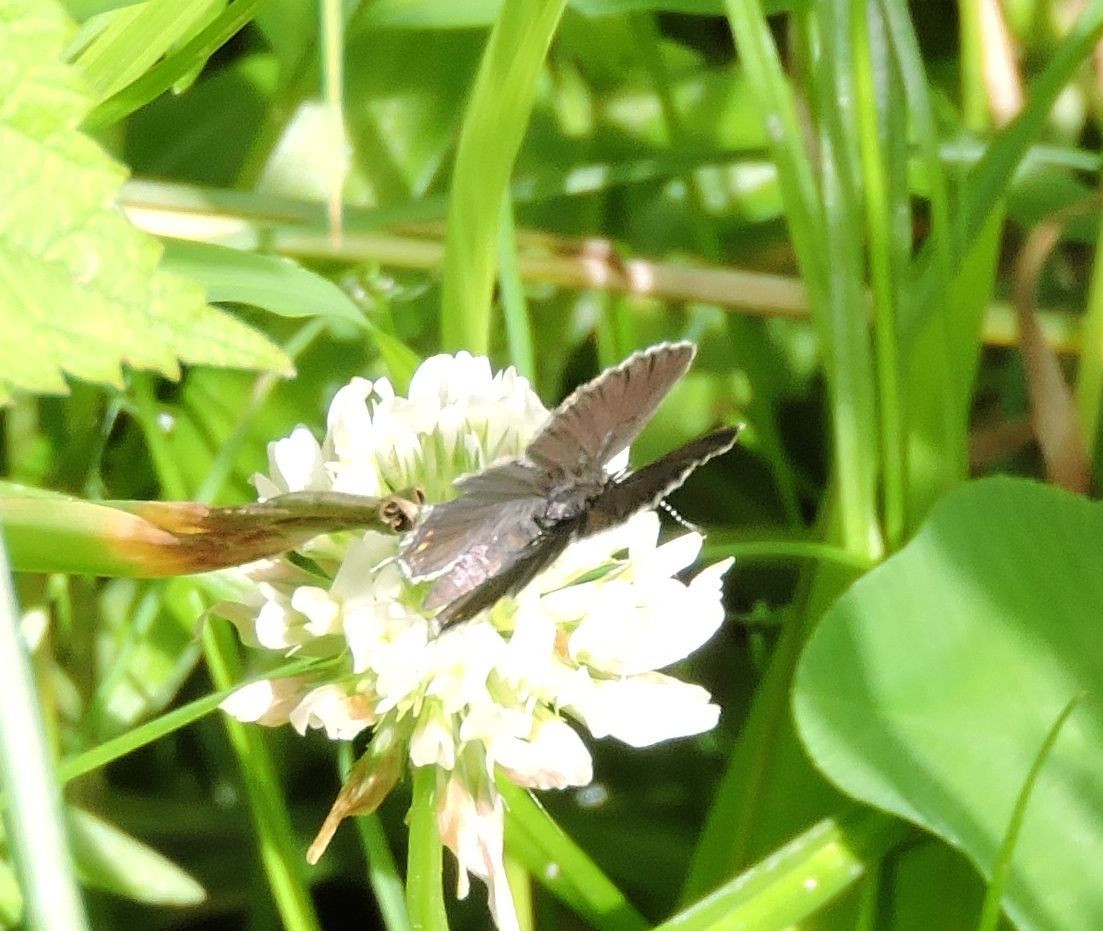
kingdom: Animalia
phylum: Arthropoda
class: Insecta
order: Lepidoptera
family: Lycaenidae
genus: Elkalyce
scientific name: Elkalyce comyntas
